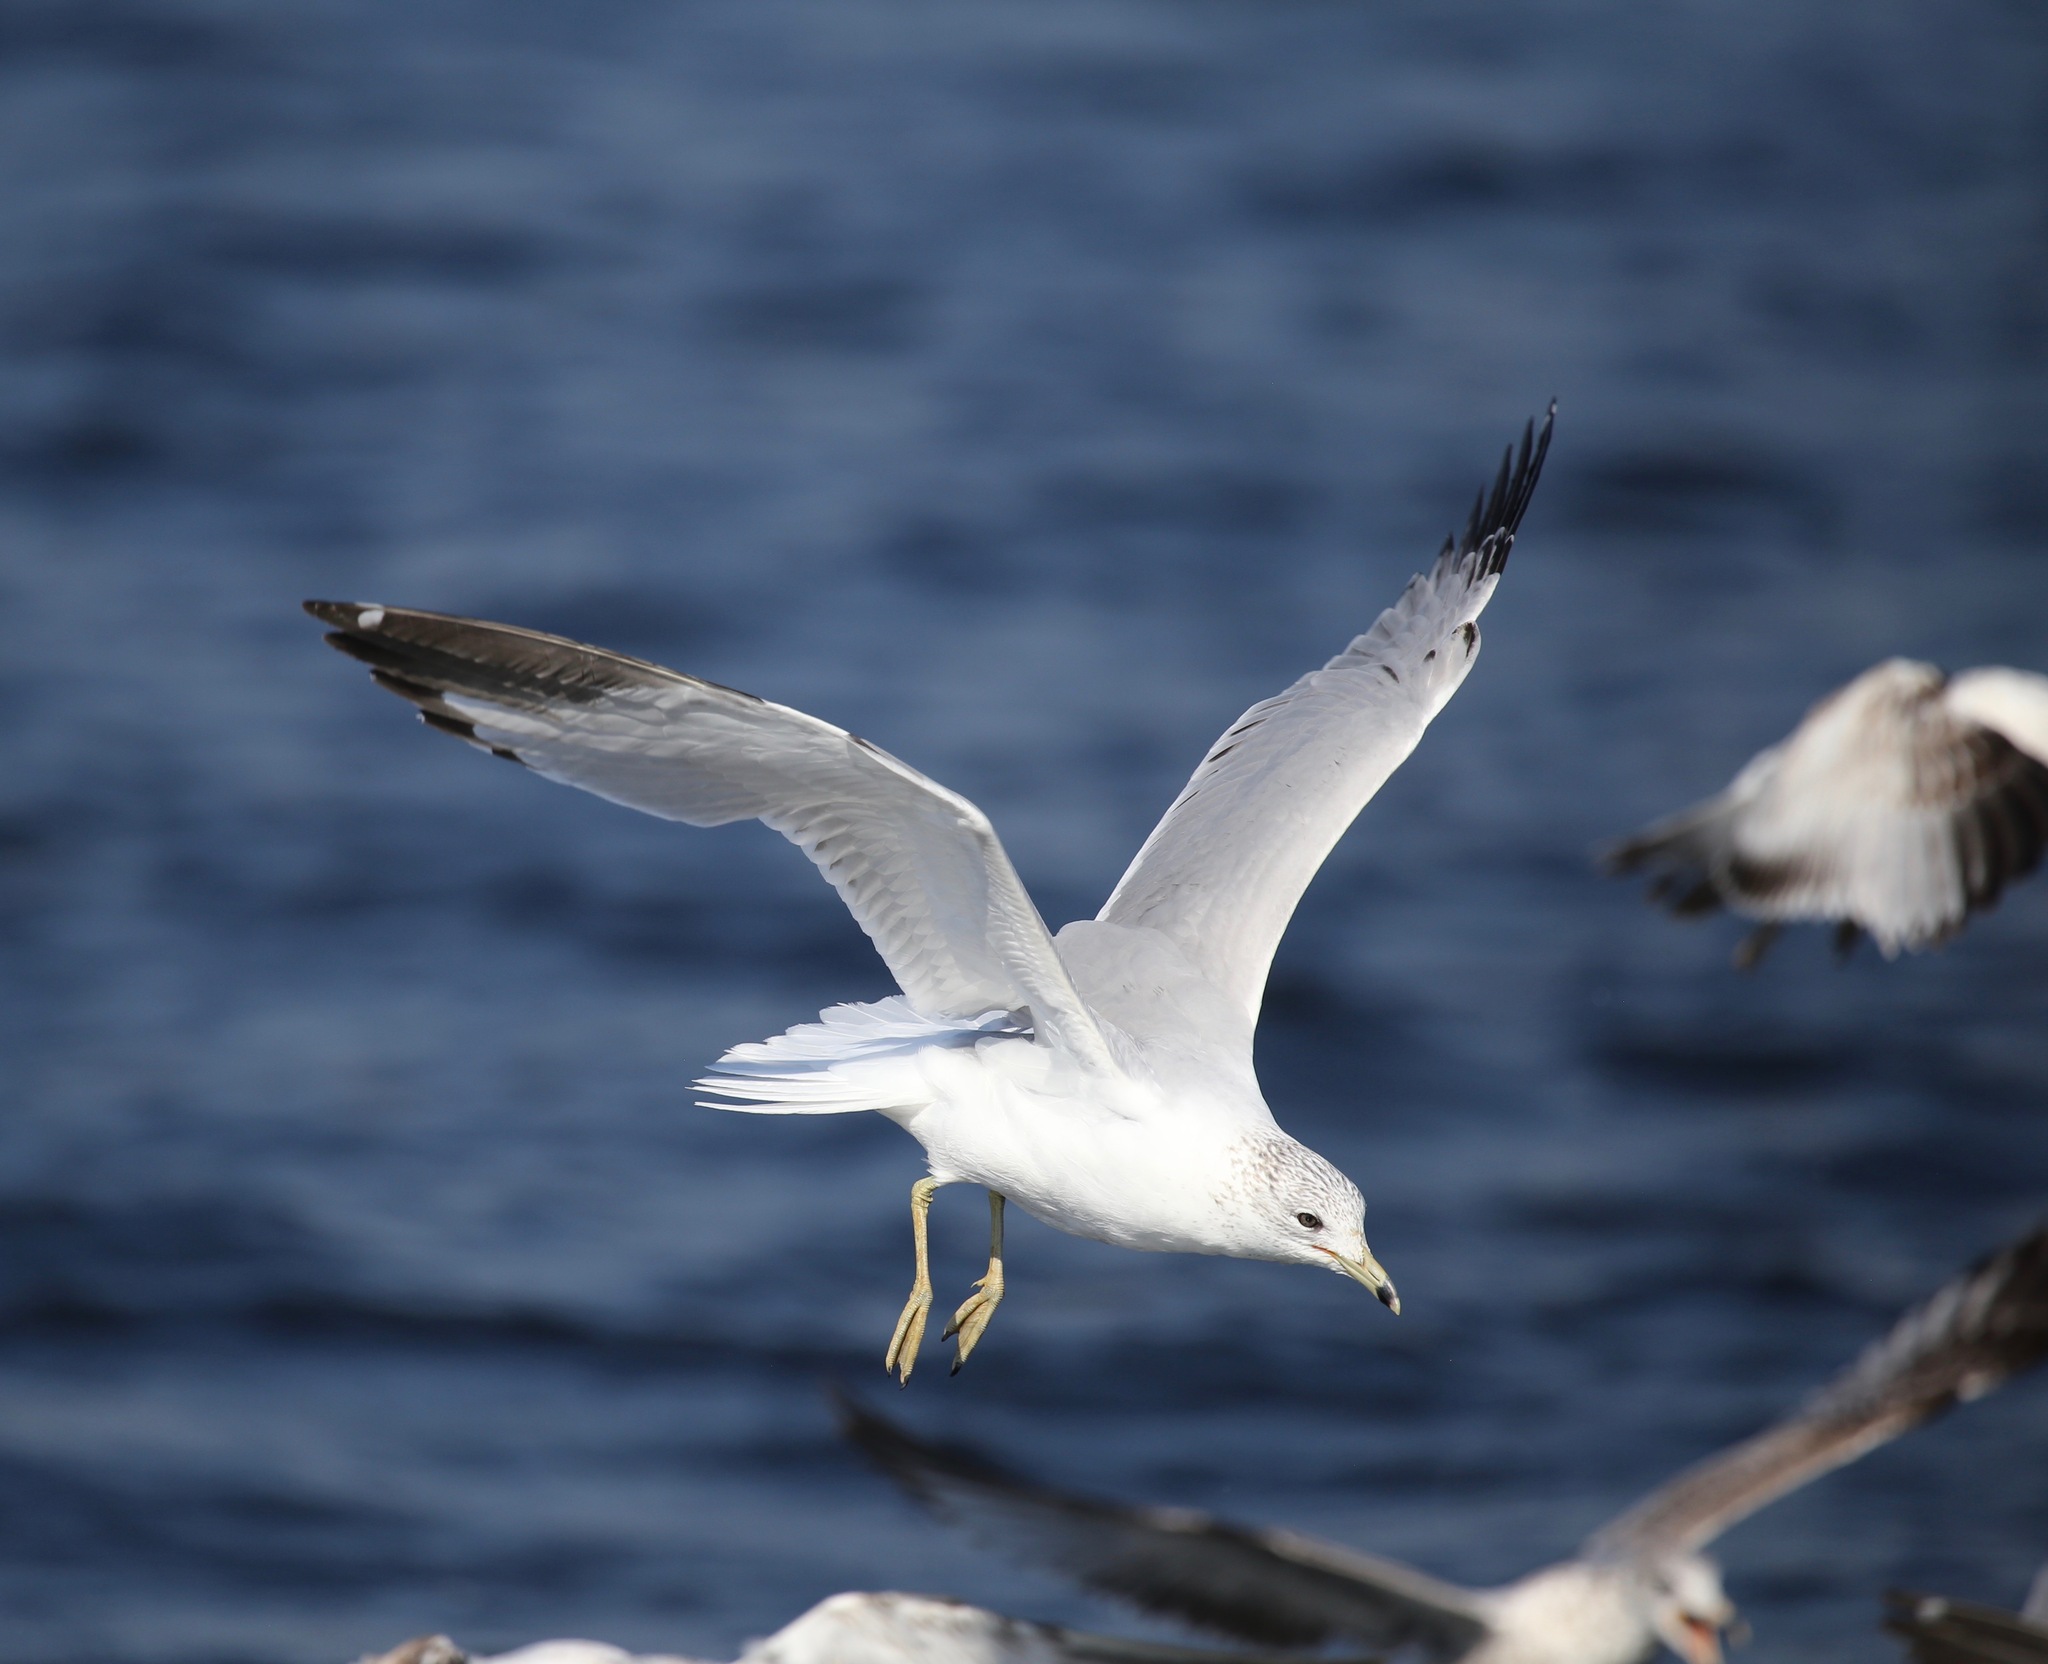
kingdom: Animalia
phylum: Chordata
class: Aves
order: Charadriiformes
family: Laridae
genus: Larus
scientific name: Larus delawarensis
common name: Ring-billed gull
